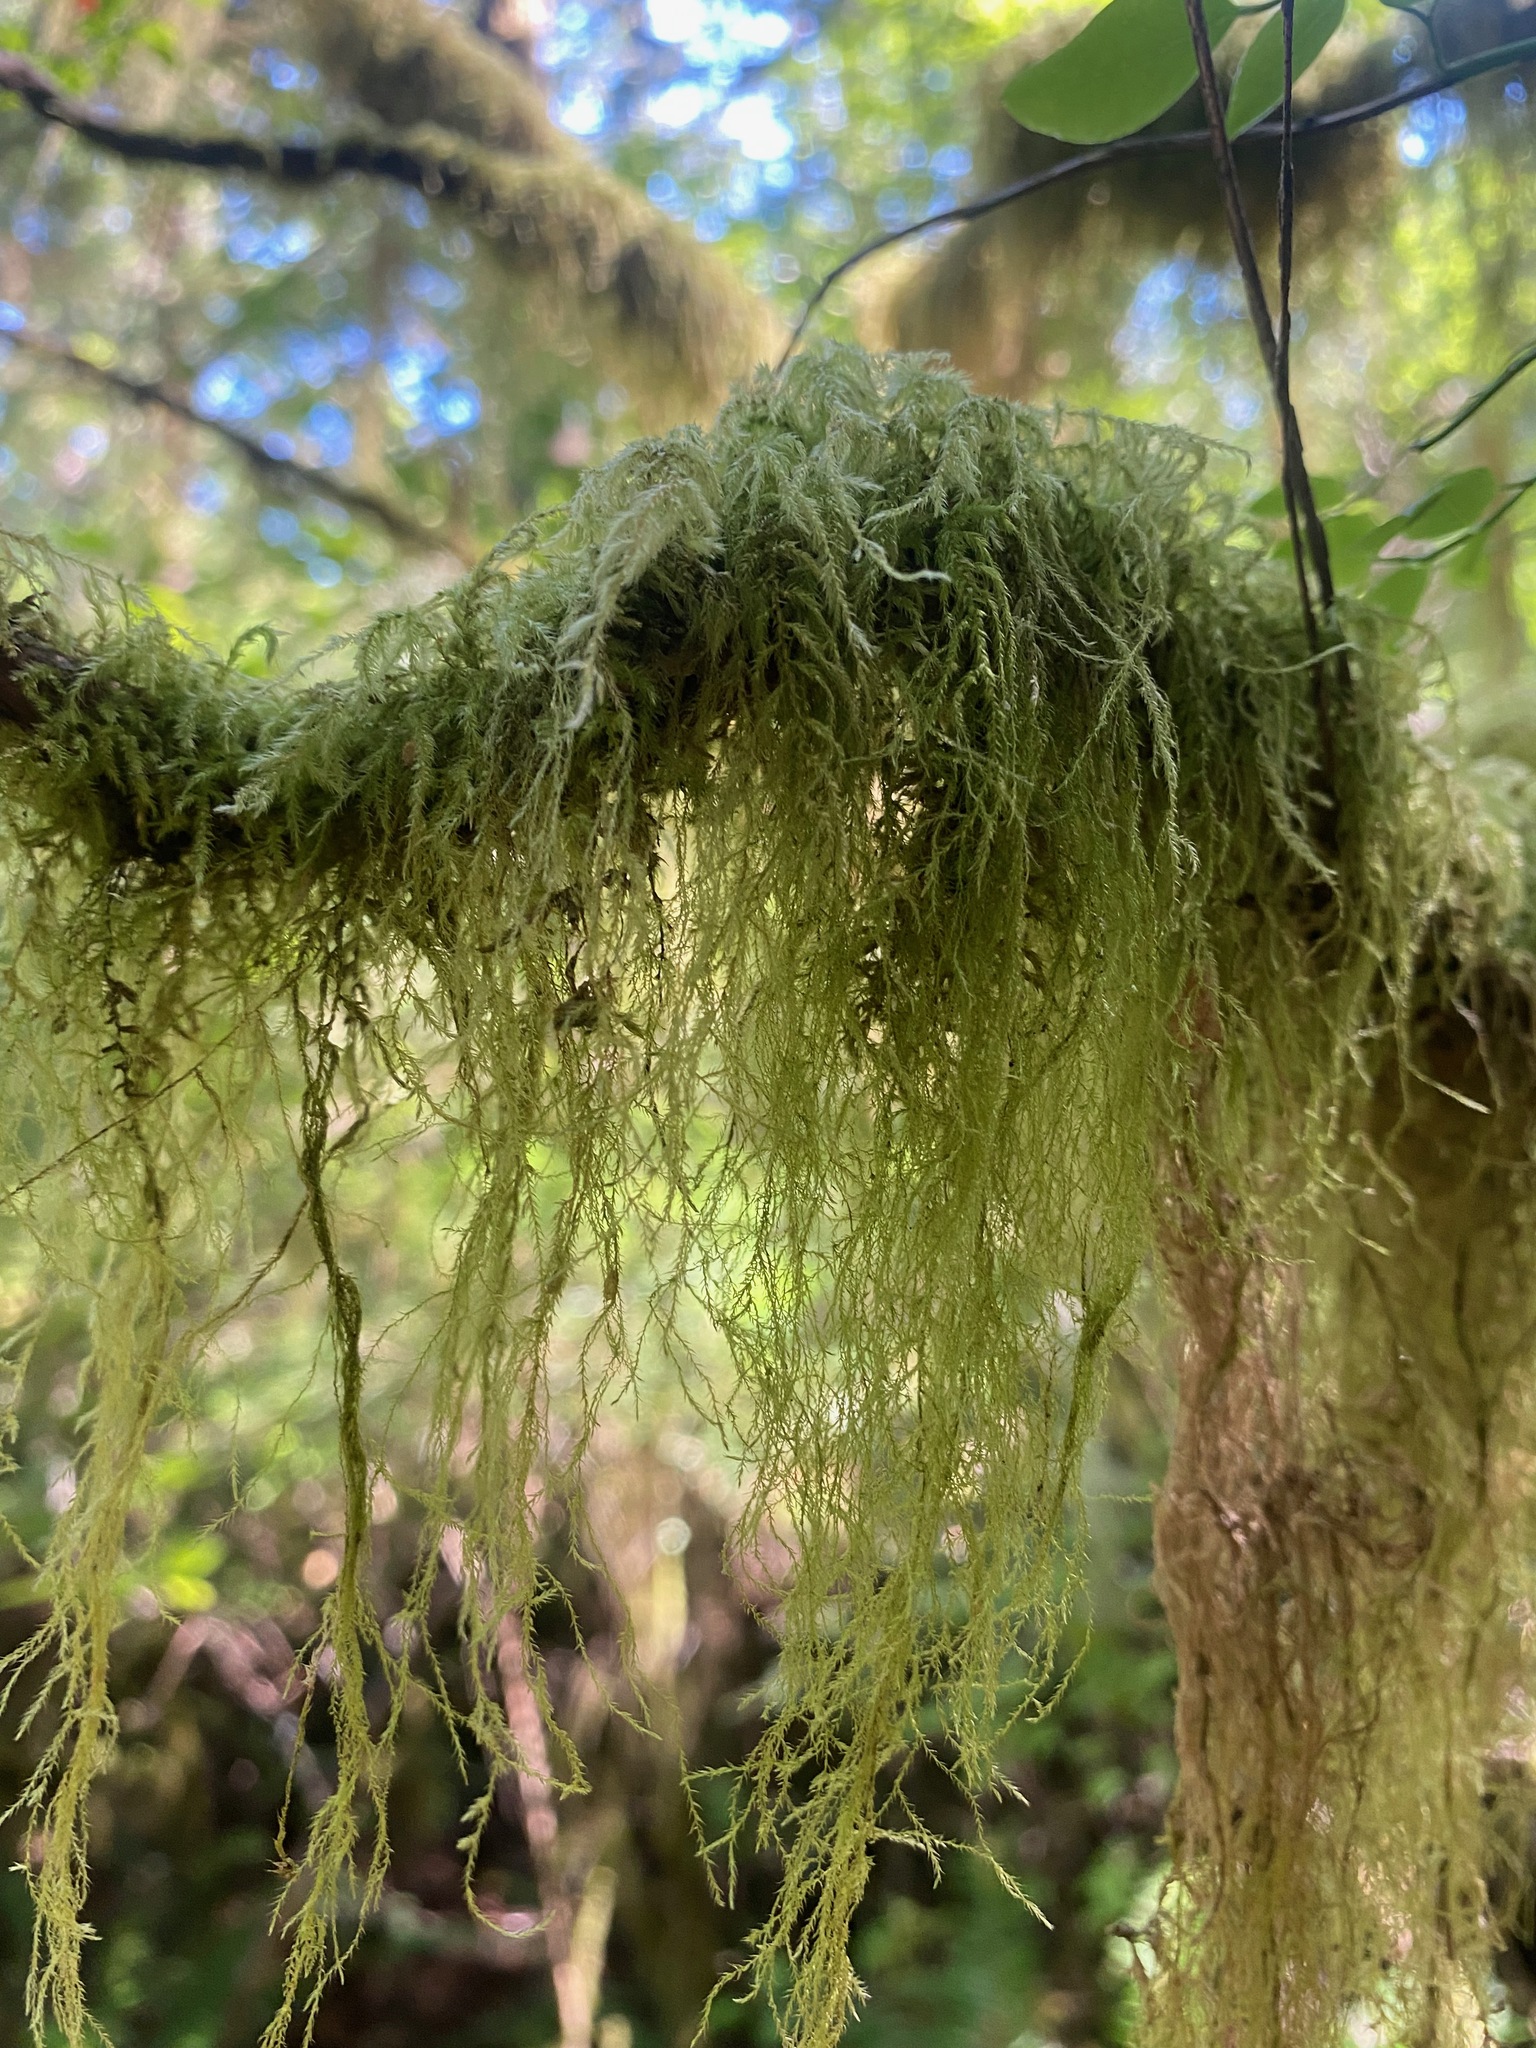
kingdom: Plantae
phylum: Bryophyta
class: Bryopsida
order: Hypnales
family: Lembophyllaceae
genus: Pseudisothecium
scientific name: Pseudisothecium stoloniferum
